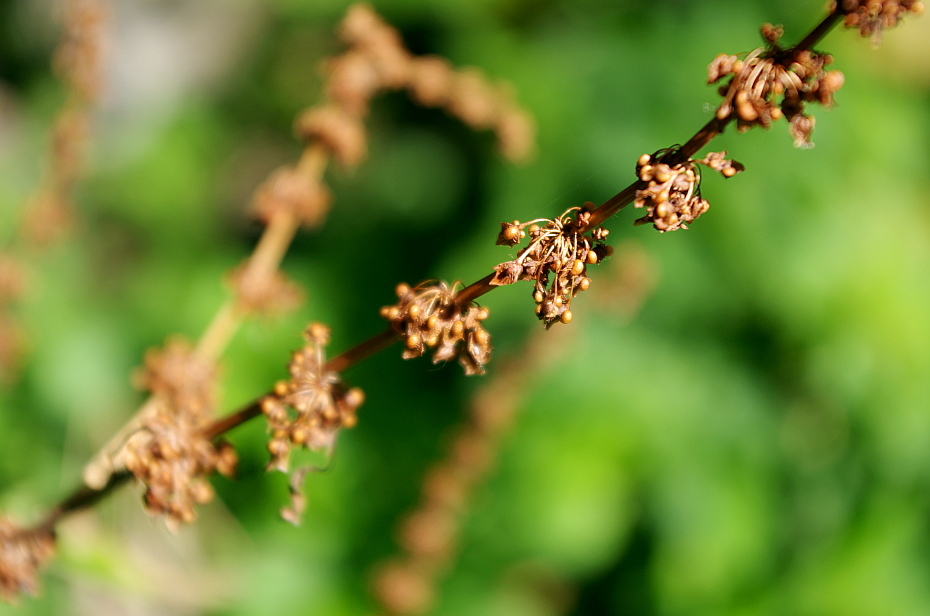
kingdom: Plantae
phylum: Tracheophyta
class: Magnoliopsida
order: Caryophyllales
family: Polygonaceae
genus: Rumex
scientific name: Rumex obtusifolius
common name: Bitter dock
